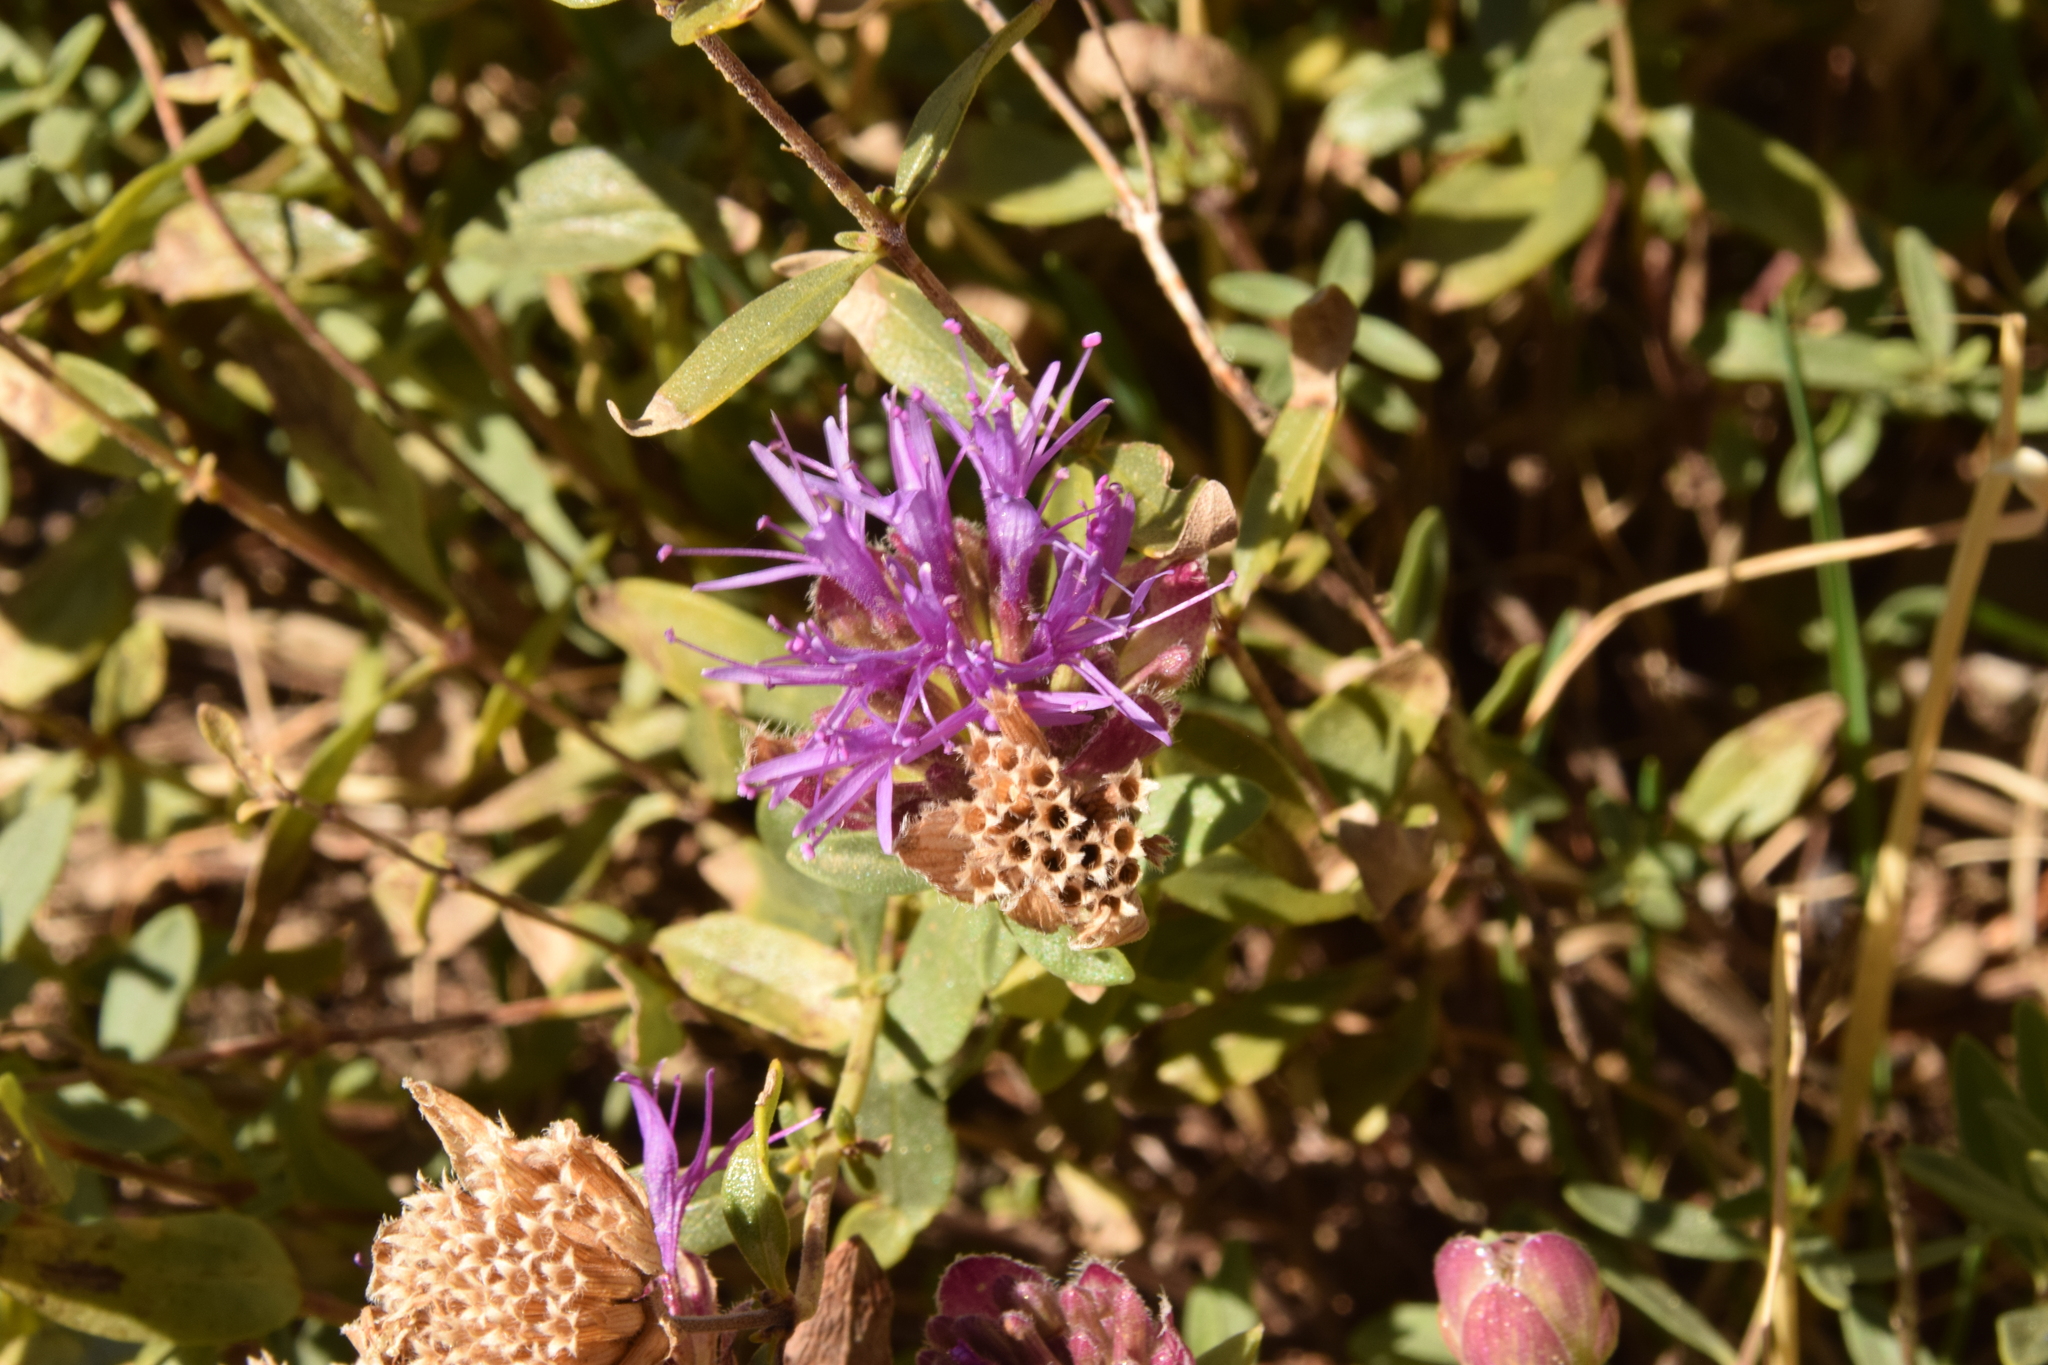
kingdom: Plantae
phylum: Tracheophyta
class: Magnoliopsida
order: Lamiales
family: Lamiaceae
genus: Monardella
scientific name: Monardella odoratissima
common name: Pacific monardella
